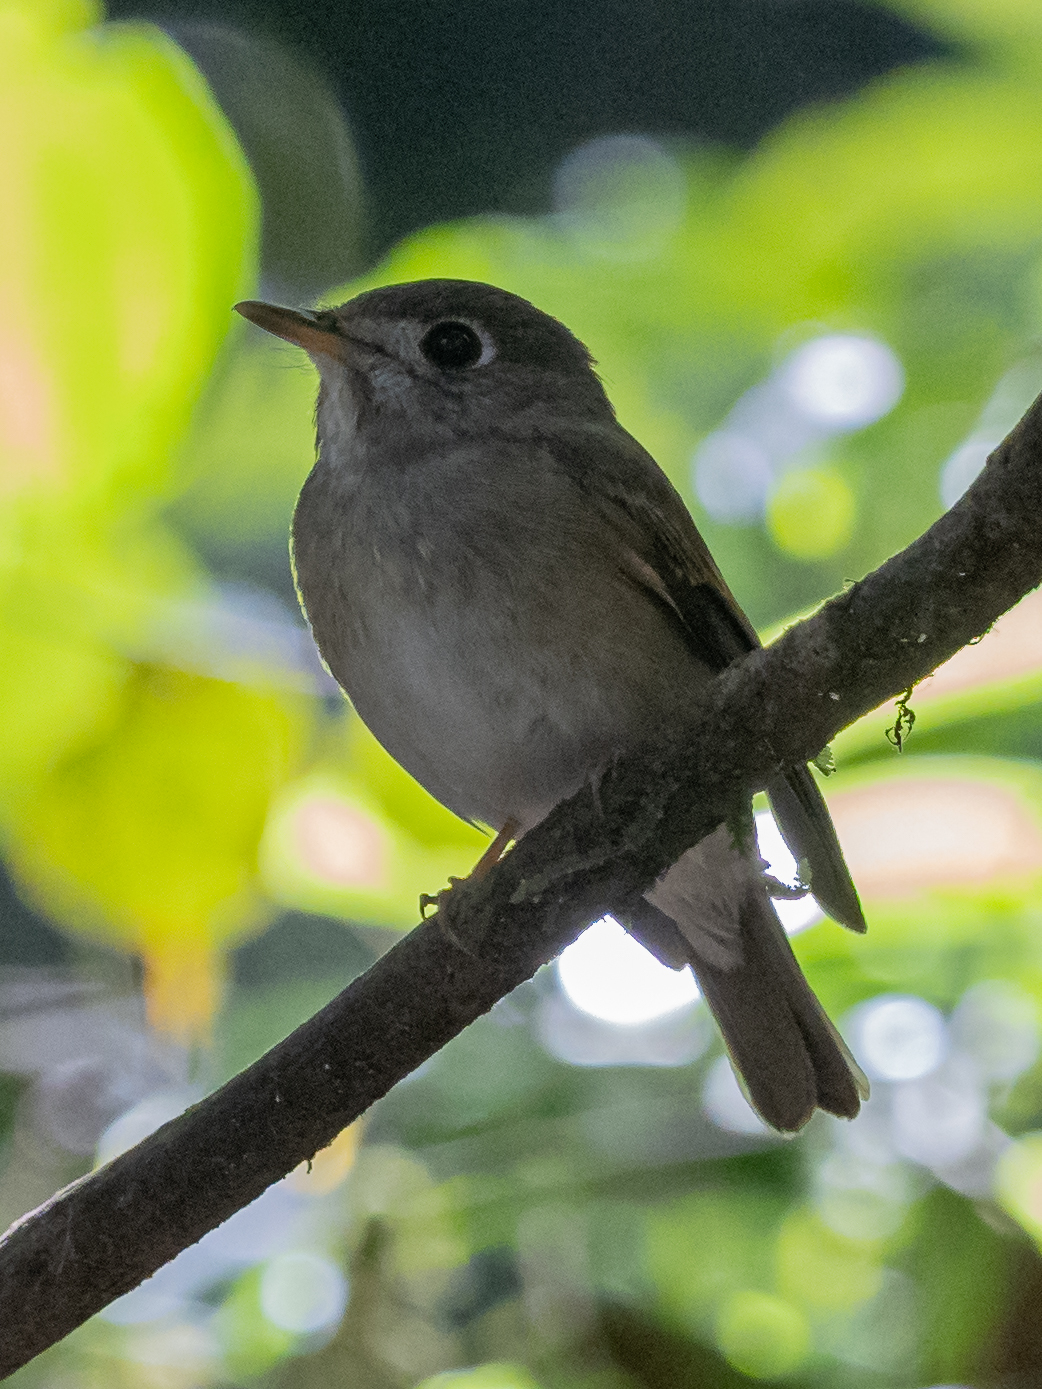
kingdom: Animalia
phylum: Chordata
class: Aves
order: Passeriformes
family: Muscicapidae
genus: Muscicapa
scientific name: Muscicapa muttui
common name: Brown-breasted flycatcher
